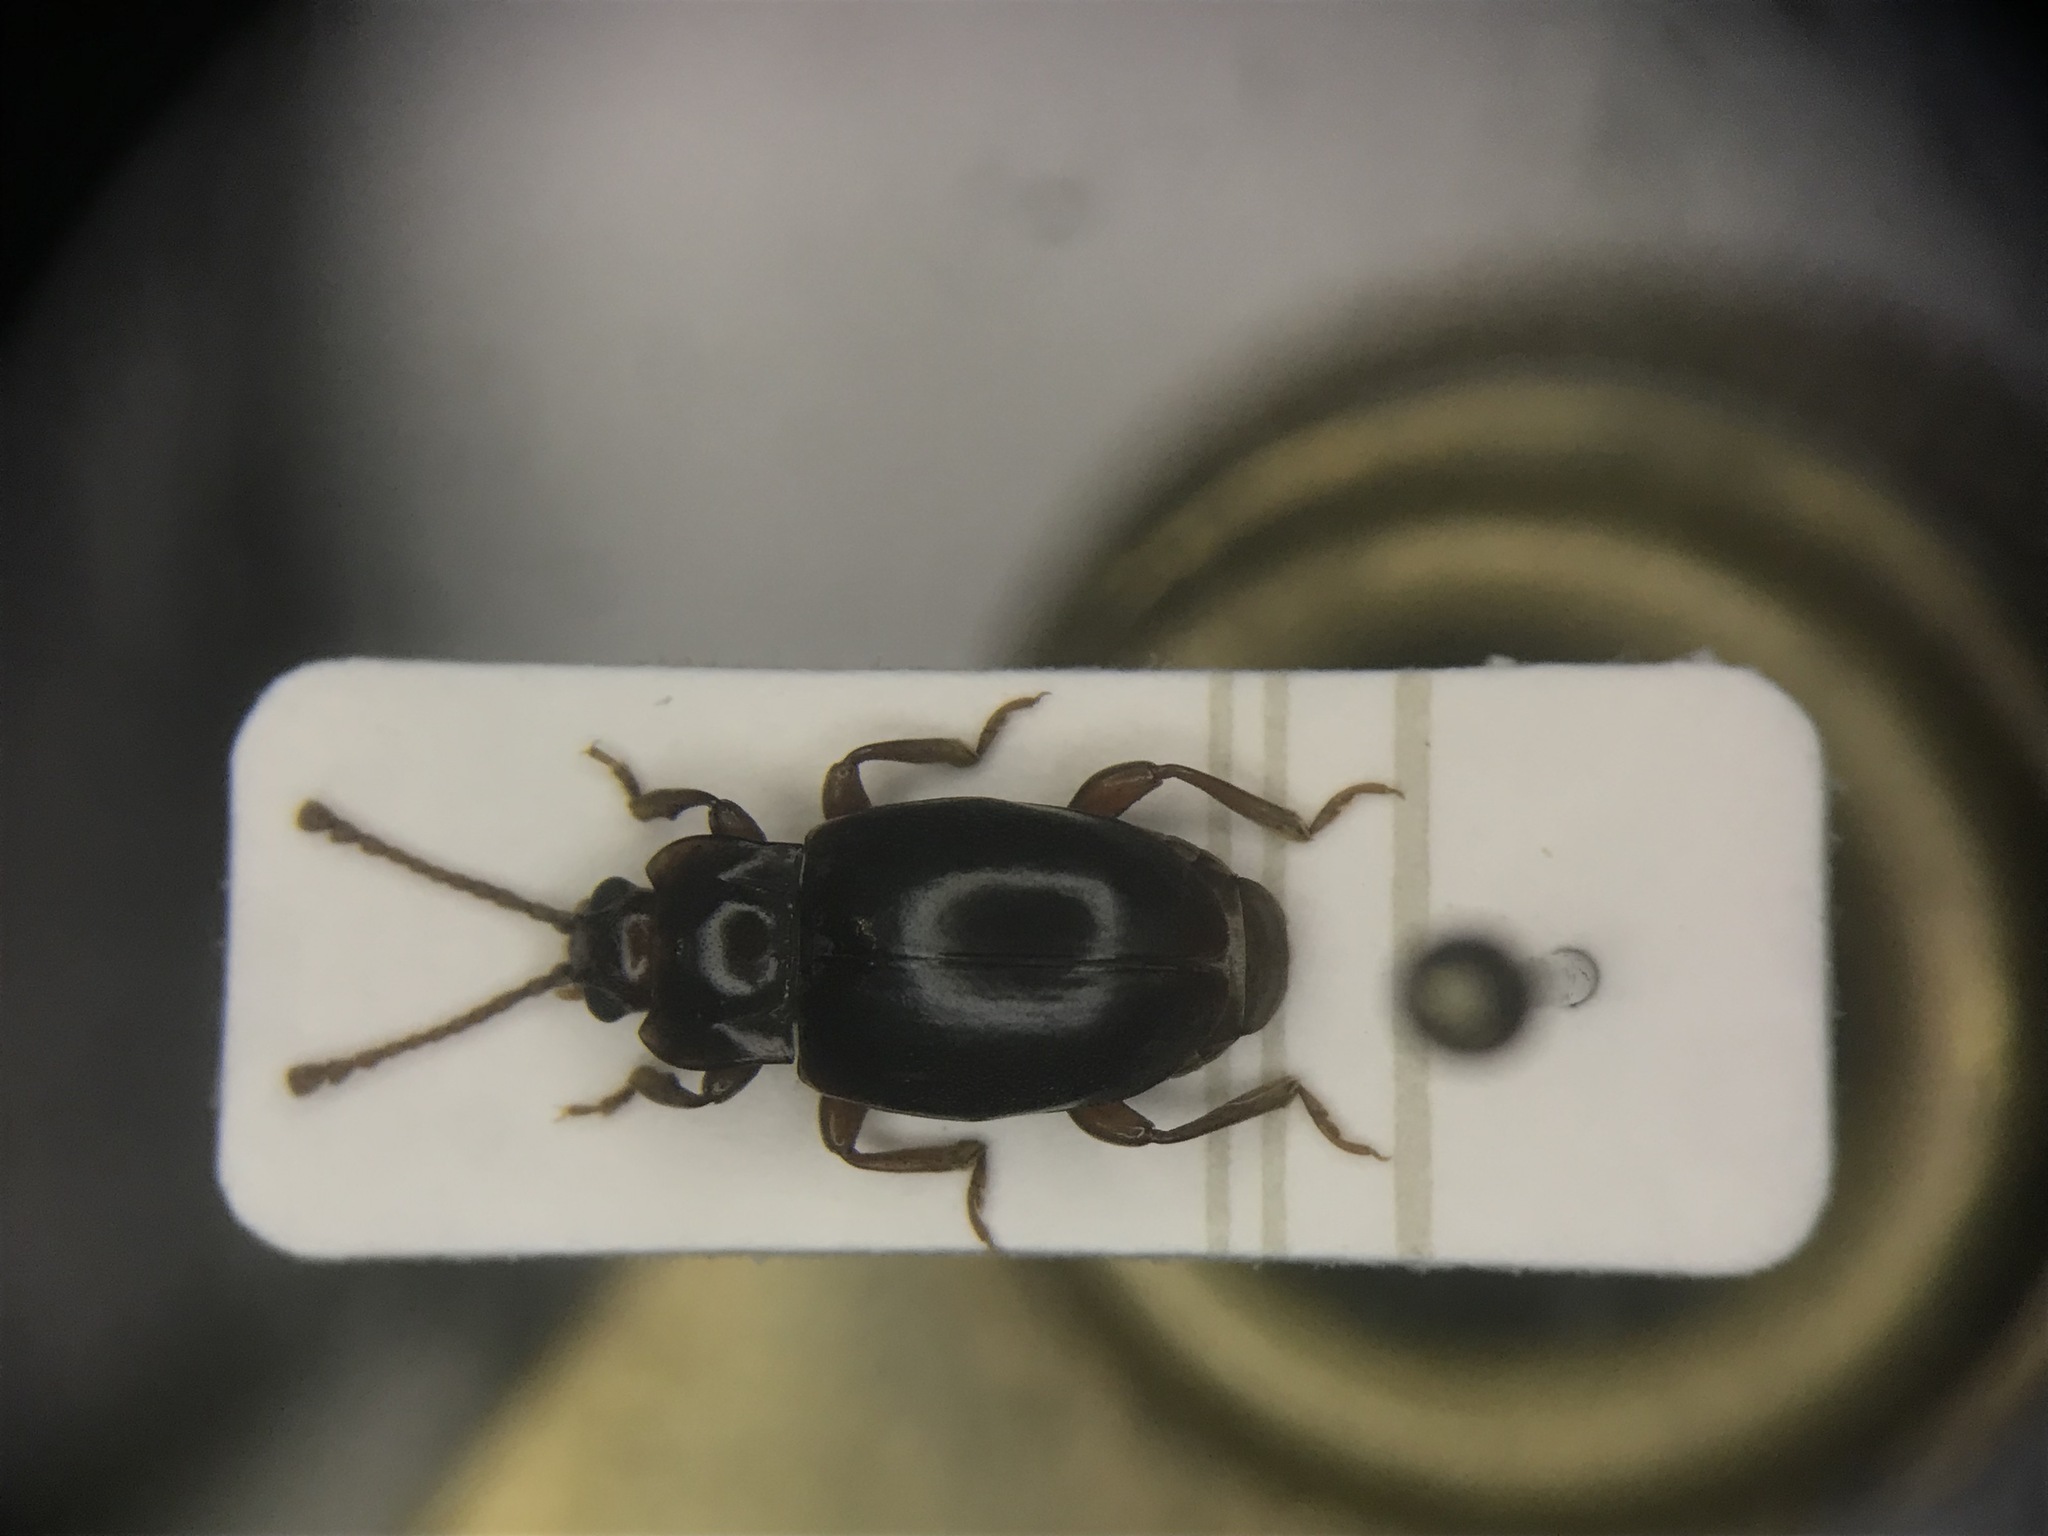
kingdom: Animalia
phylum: Arthropoda
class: Insecta
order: Coleoptera
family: Endomychidae
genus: Lycoperdina
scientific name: Lycoperdina ferruginea
